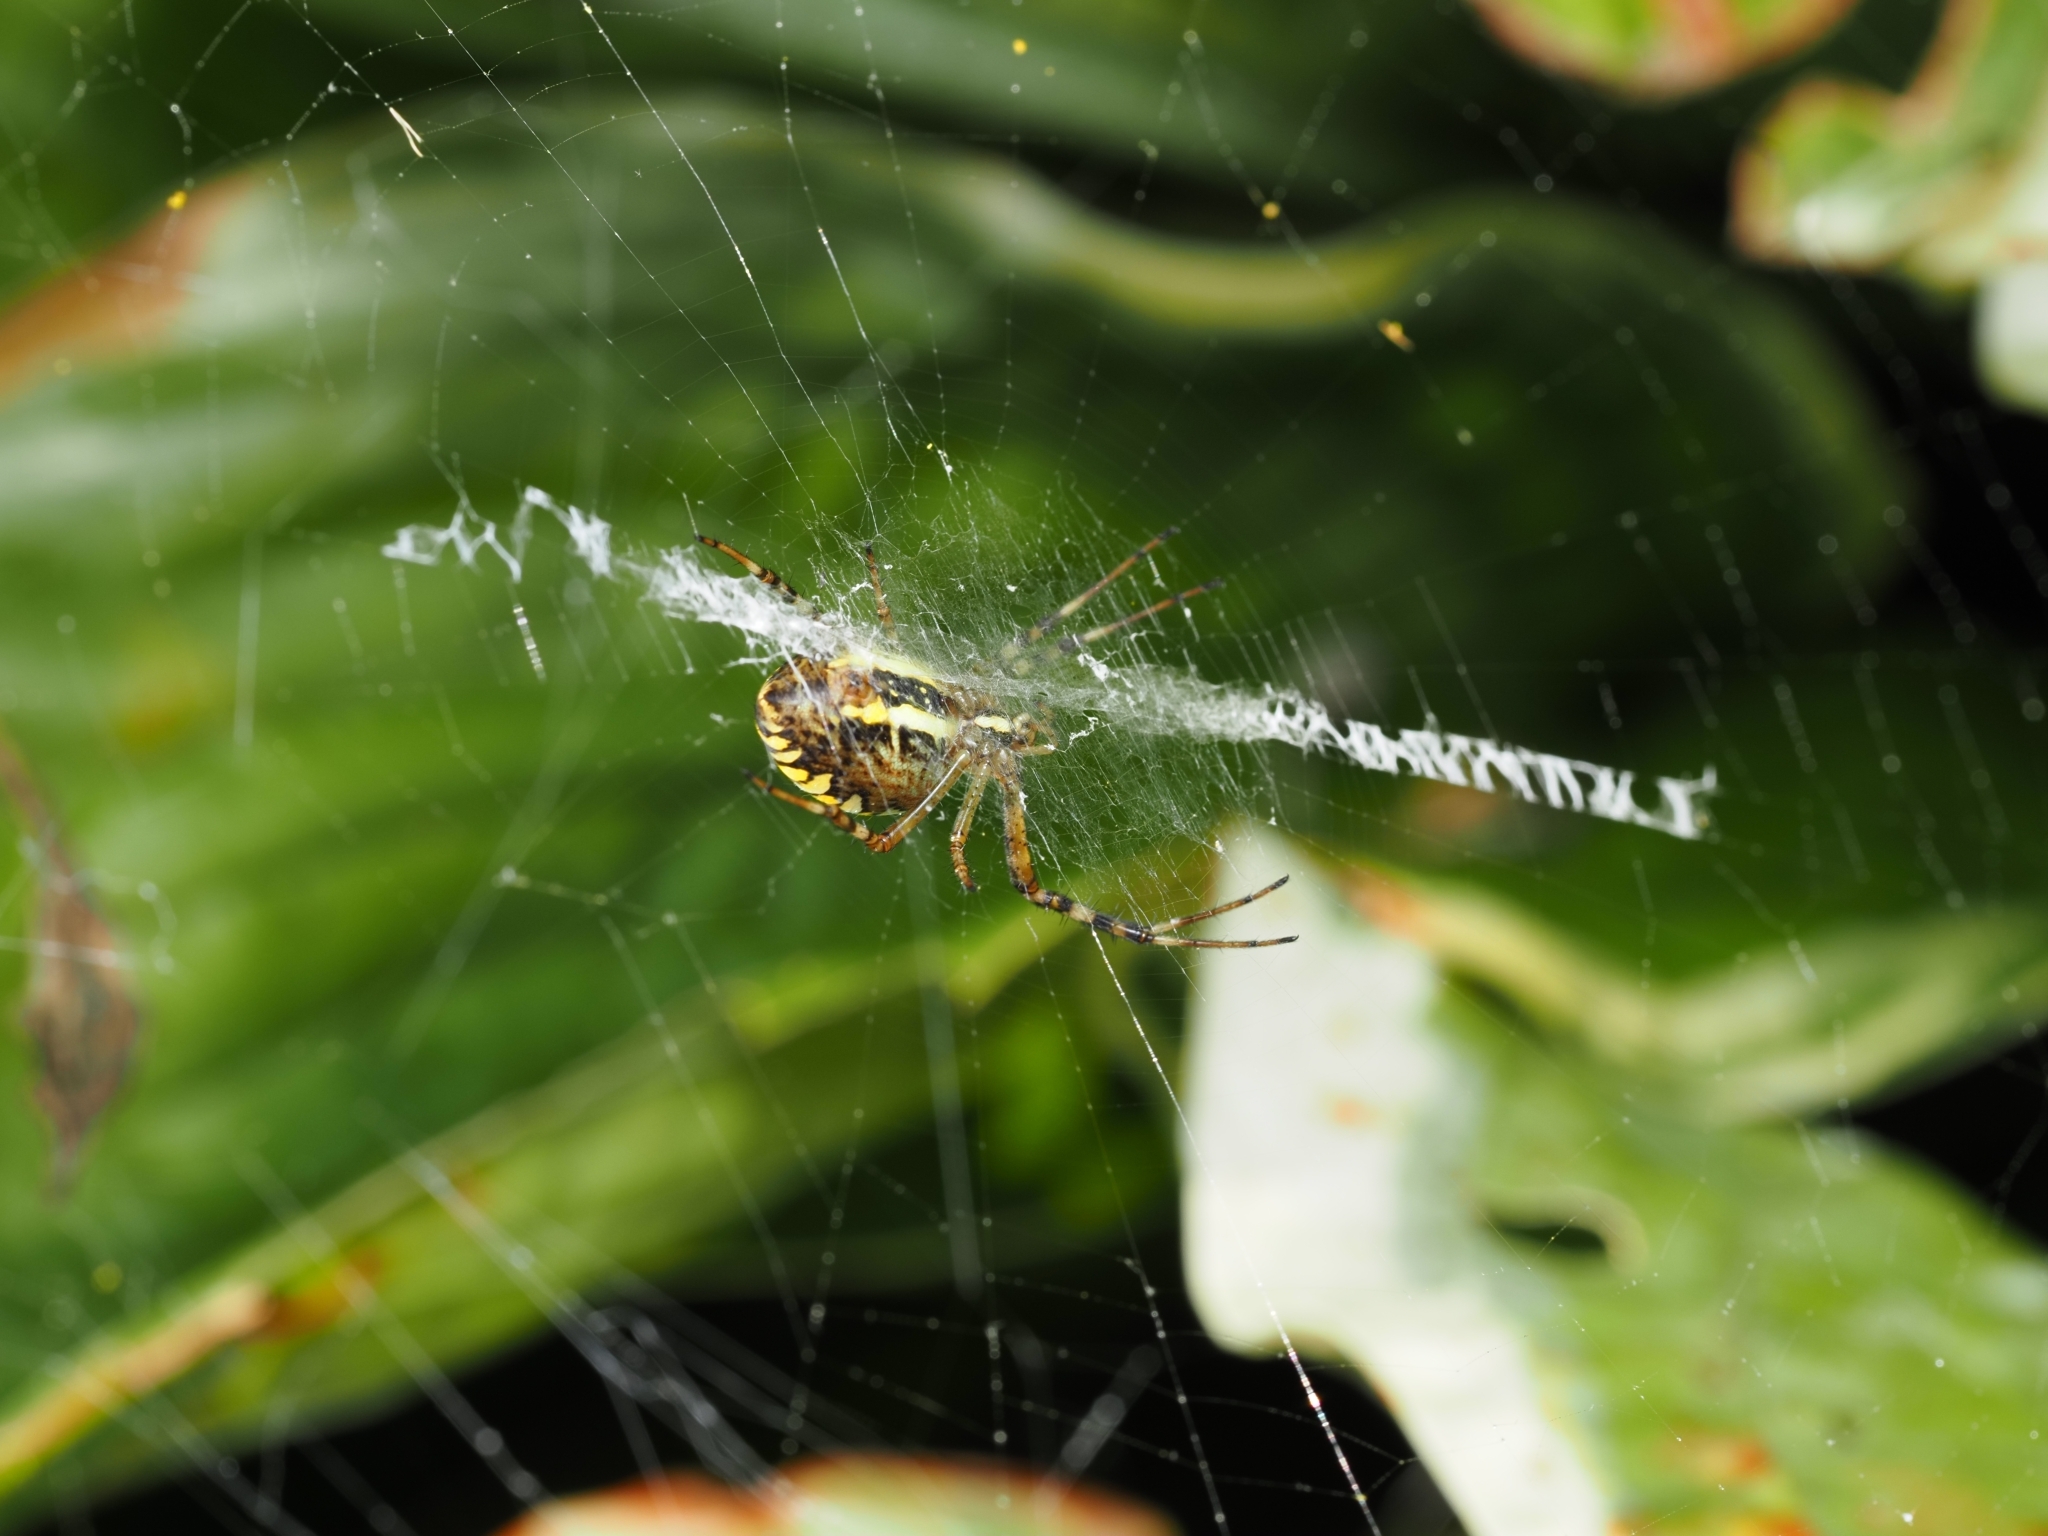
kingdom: Animalia
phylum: Arthropoda
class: Arachnida
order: Araneae
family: Araneidae
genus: Argiope
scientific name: Argiope bruennichi
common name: Wasp spider
